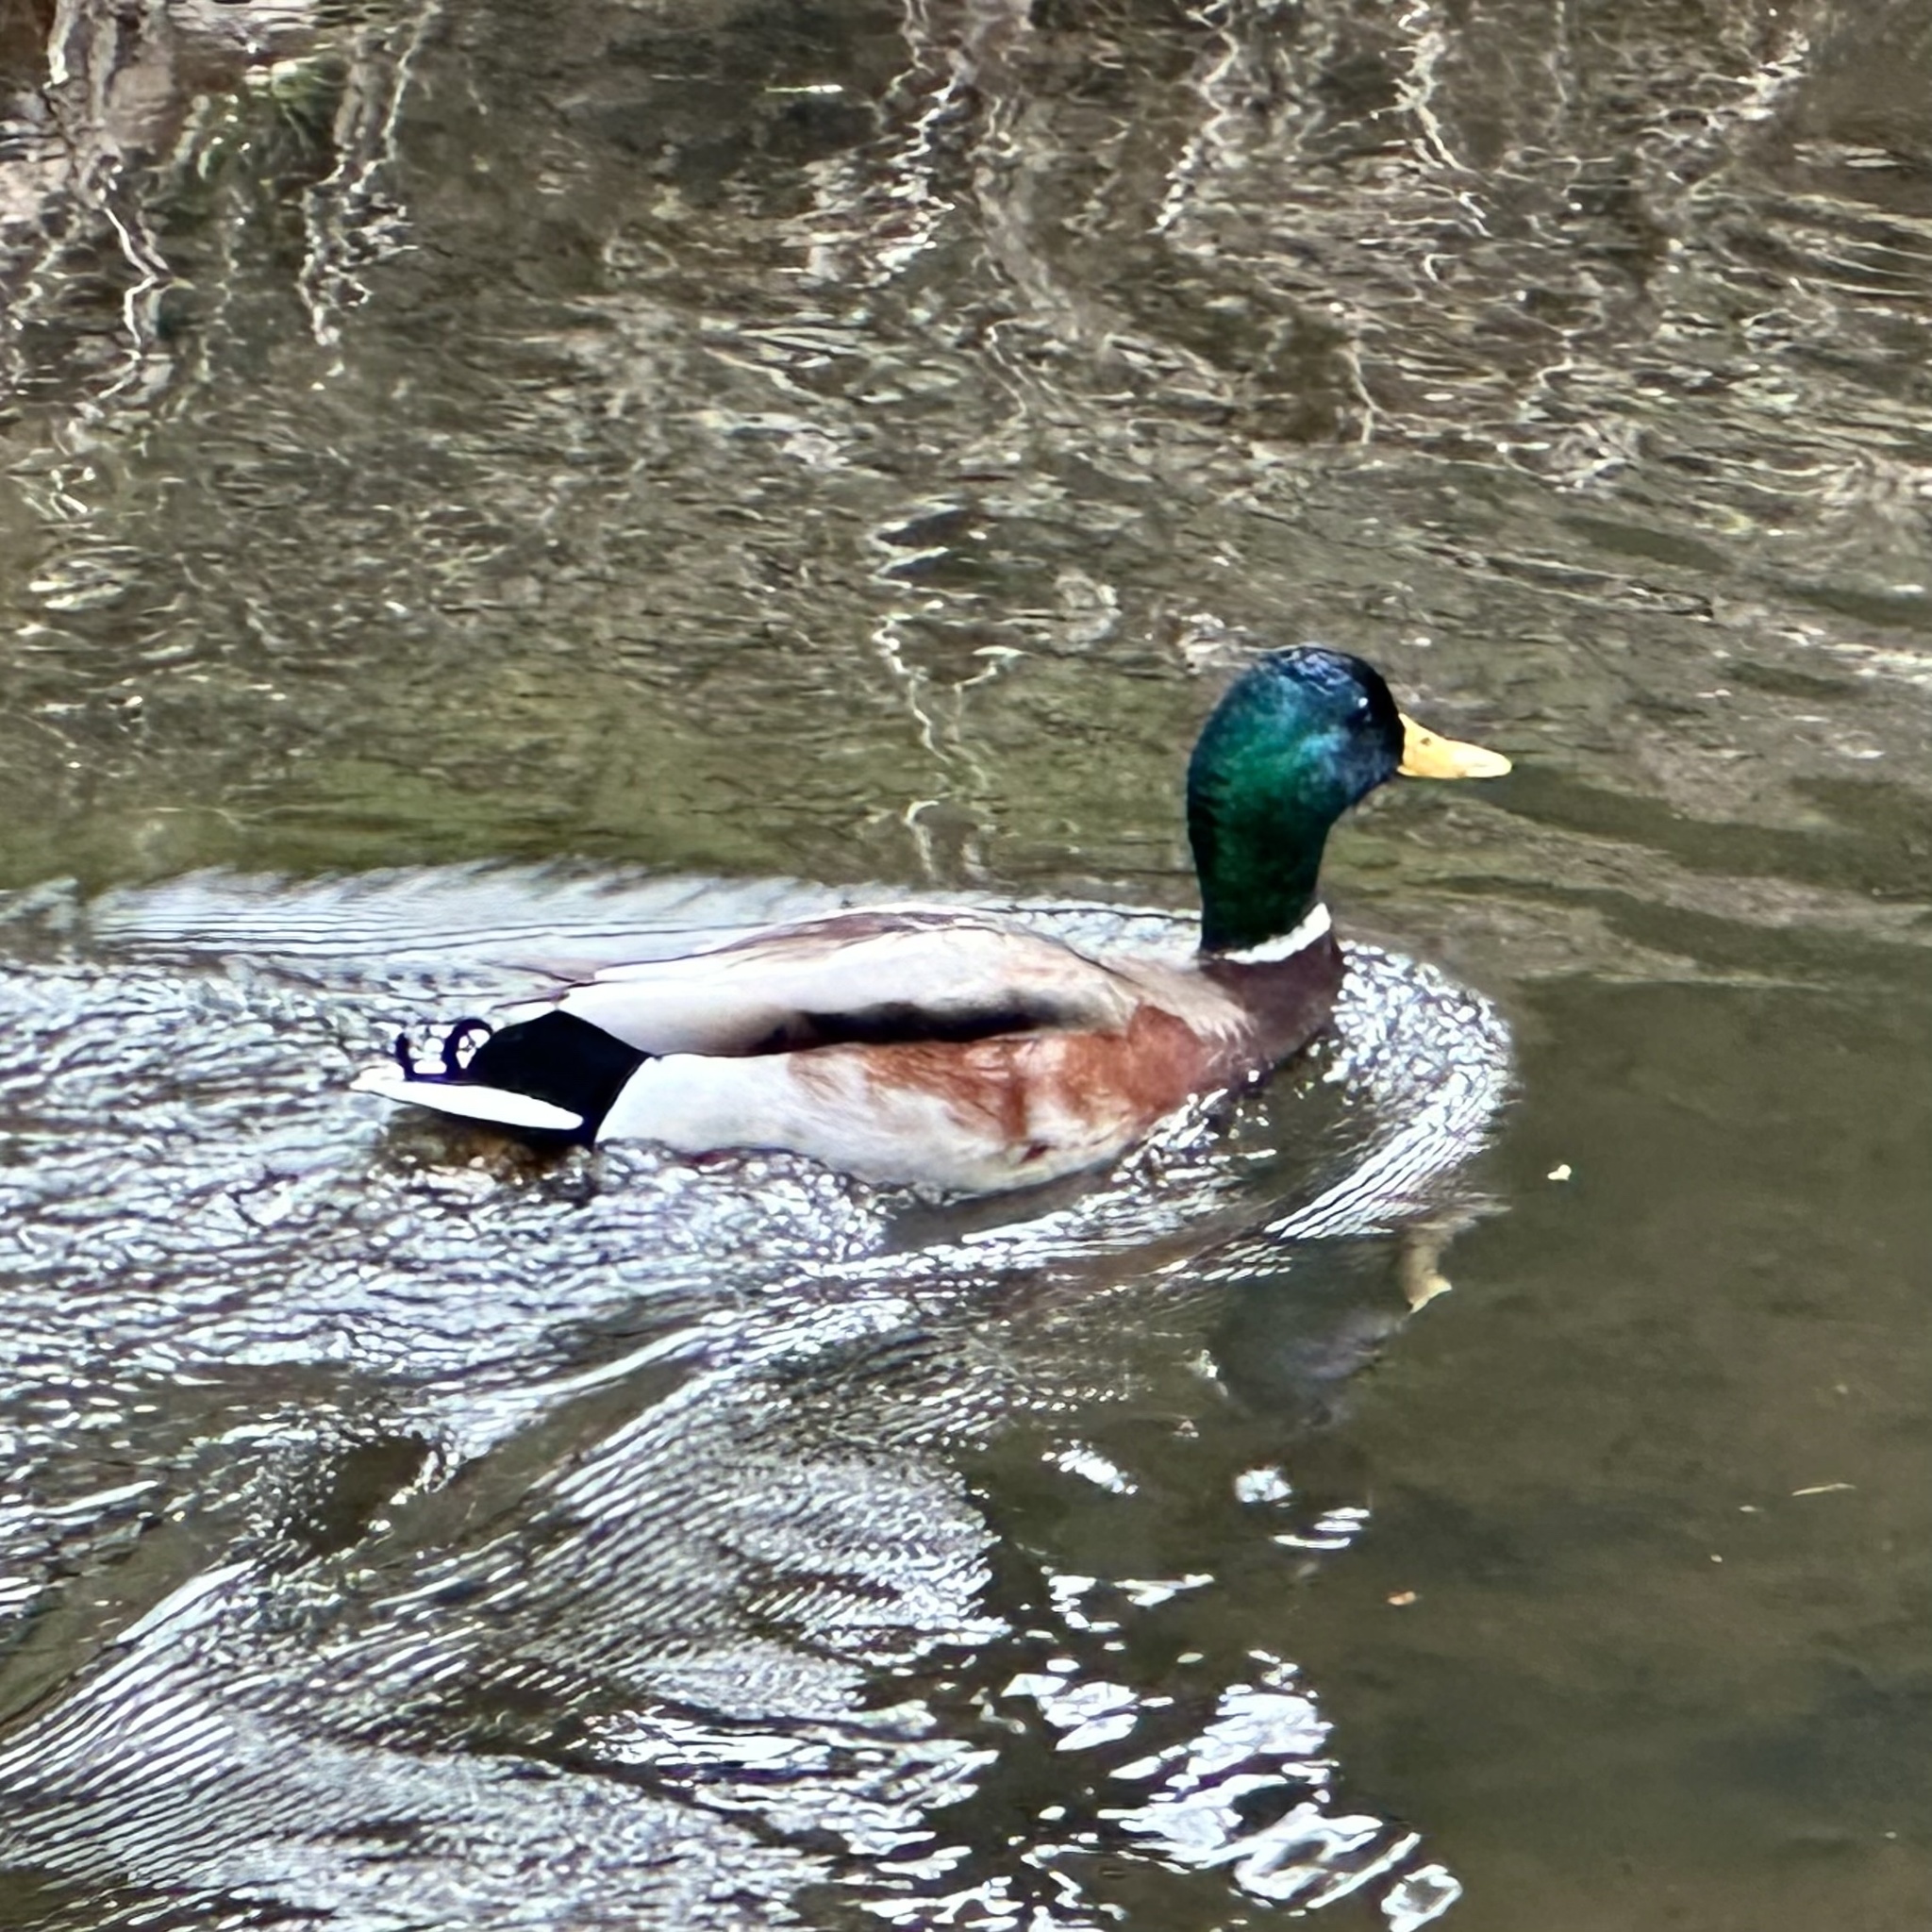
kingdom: Animalia
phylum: Chordata
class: Aves
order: Anseriformes
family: Anatidae
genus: Anas
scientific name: Anas platyrhynchos
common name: Mallard
